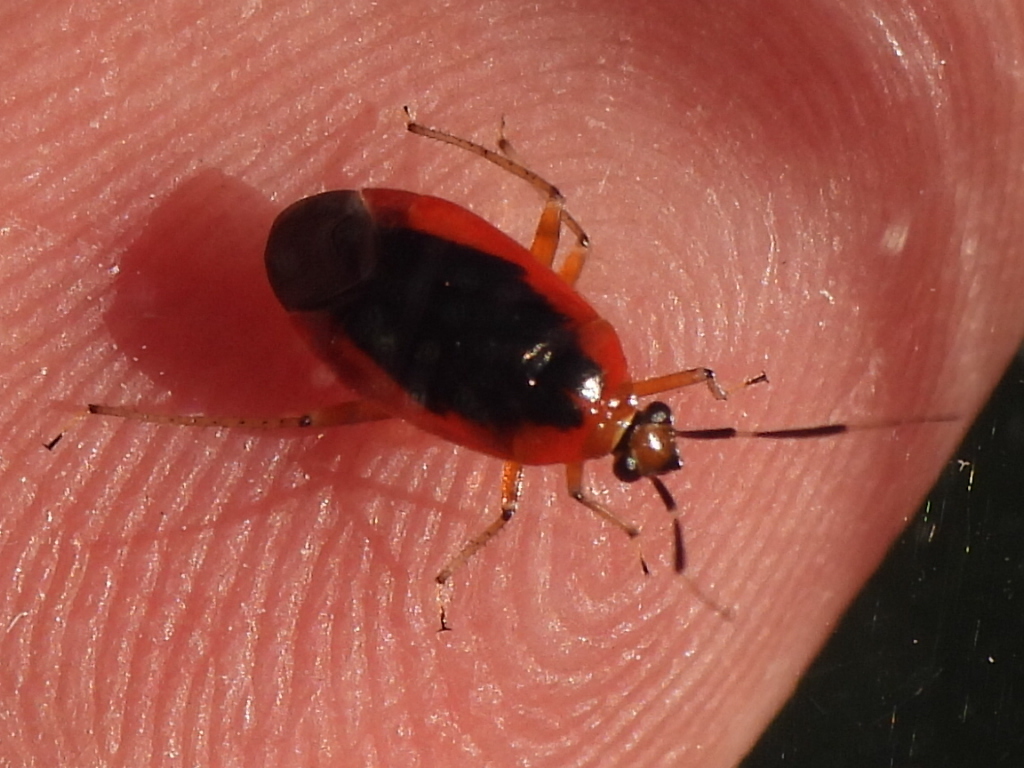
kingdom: Animalia
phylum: Arthropoda
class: Insecta
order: Hemiptera
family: Miridae
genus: Metriorrhynchomiris
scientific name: Metriorrhynchomiris dislocatus
